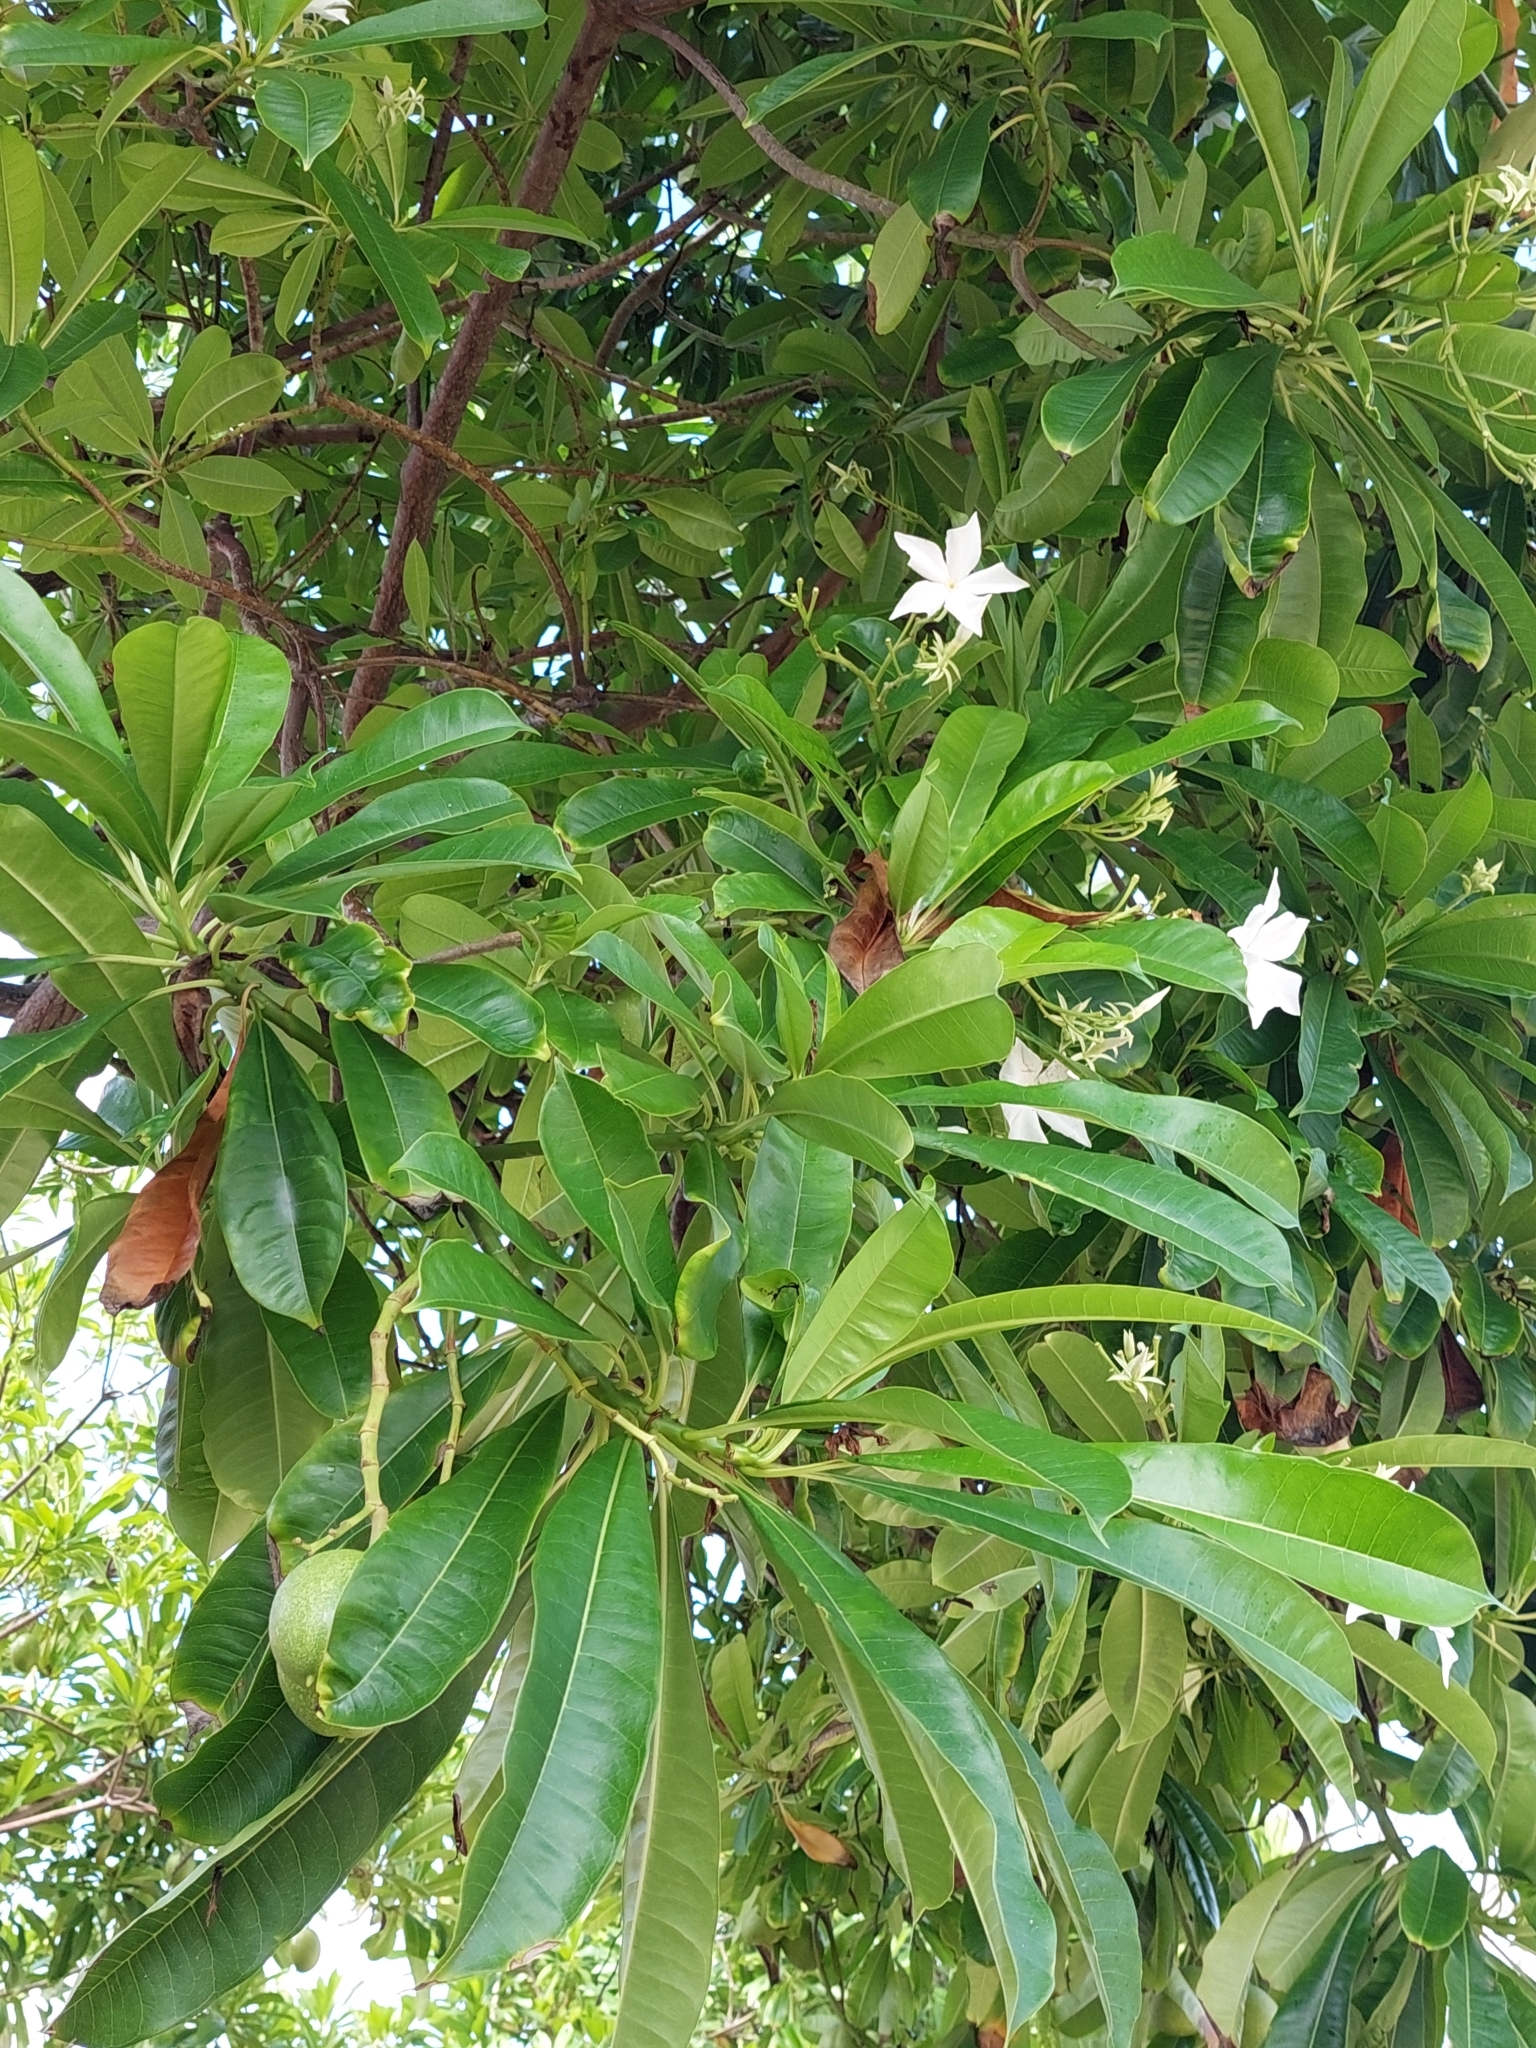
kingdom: Plantae
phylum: Tracheophyta
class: Magnoliopsida
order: Gentianales
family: Apocynaceae
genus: Cerbera
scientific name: Cerbera odollam
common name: Pong-pong
